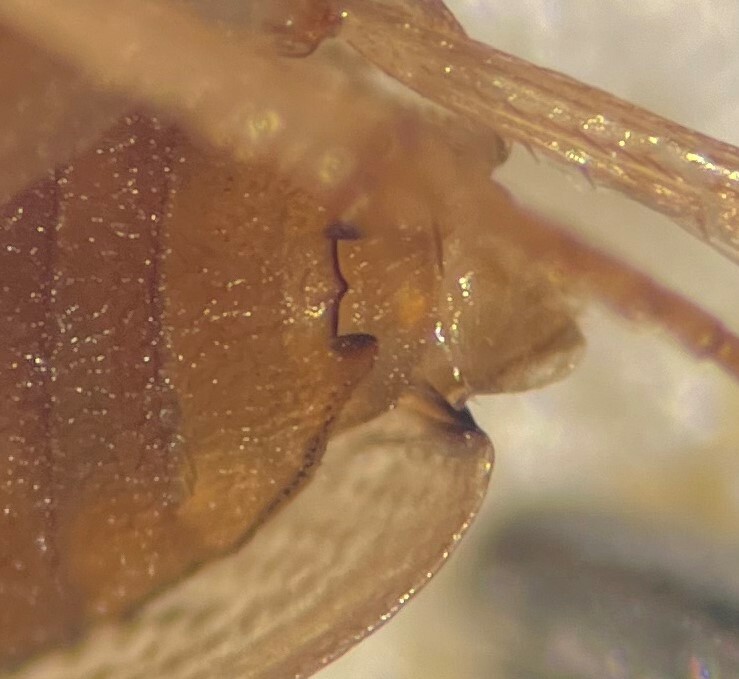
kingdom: Animalia
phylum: Arthropoda
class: Insecta
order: Coleoptera
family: Hydrophilidae
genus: Berosus
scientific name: Berosus peregrinus
